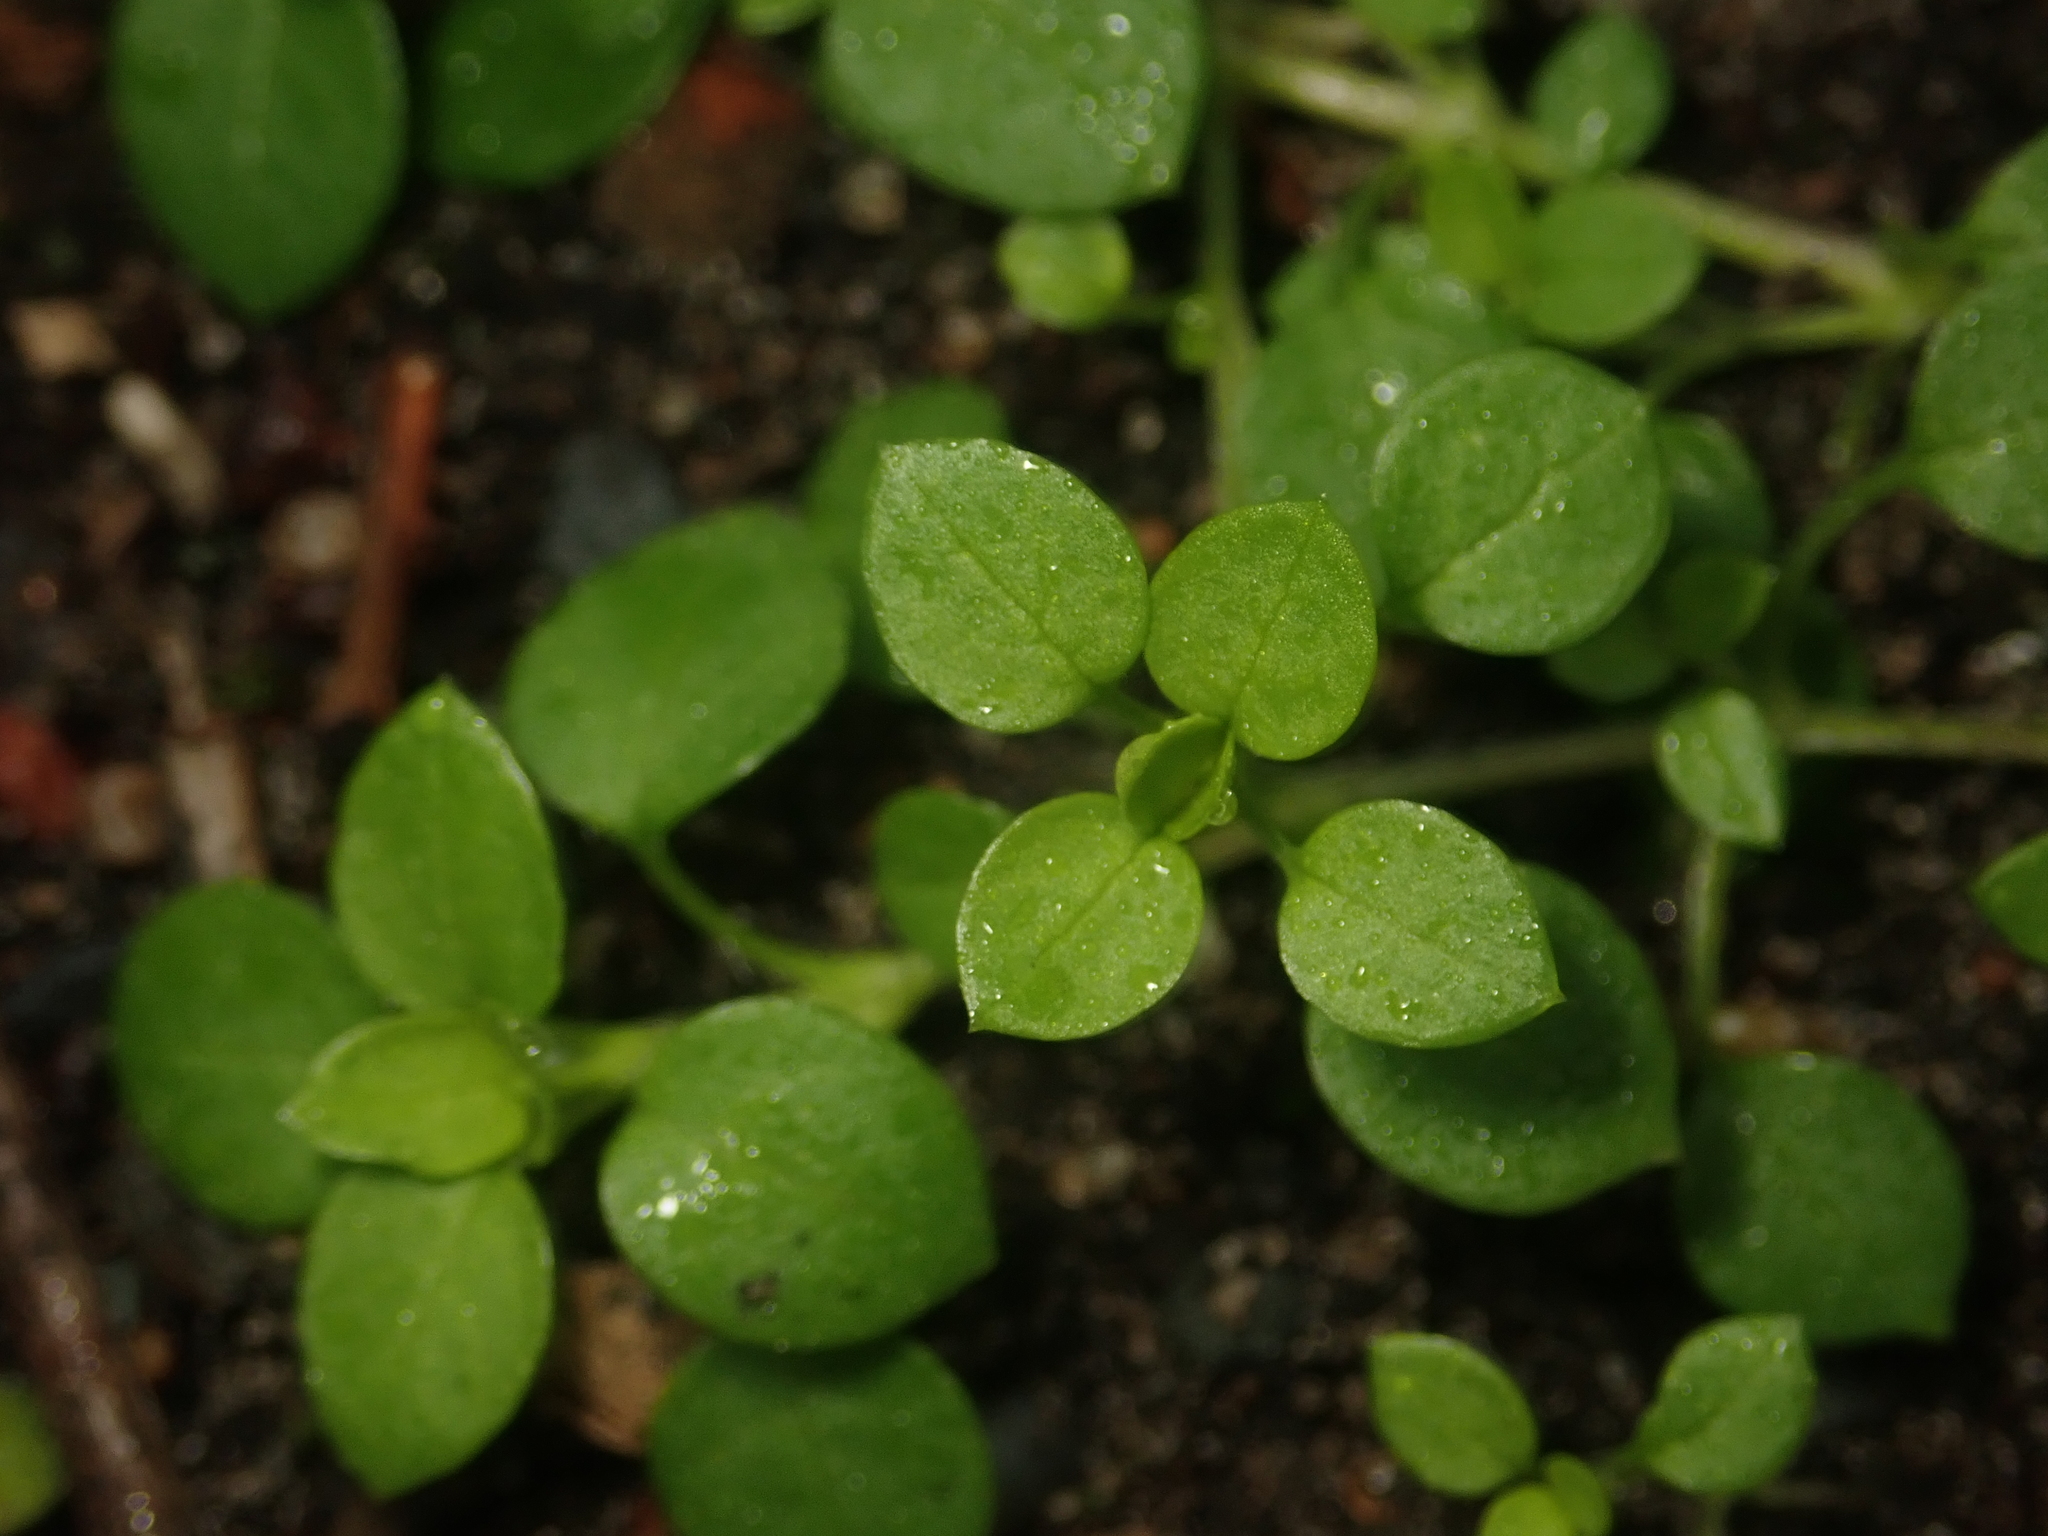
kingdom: Plantae
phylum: Tracheophyta
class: Magnoliopsida
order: Caryophyllales
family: Caryophyllaceae
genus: Stellaria
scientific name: Stellaria media
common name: Common chickweed
